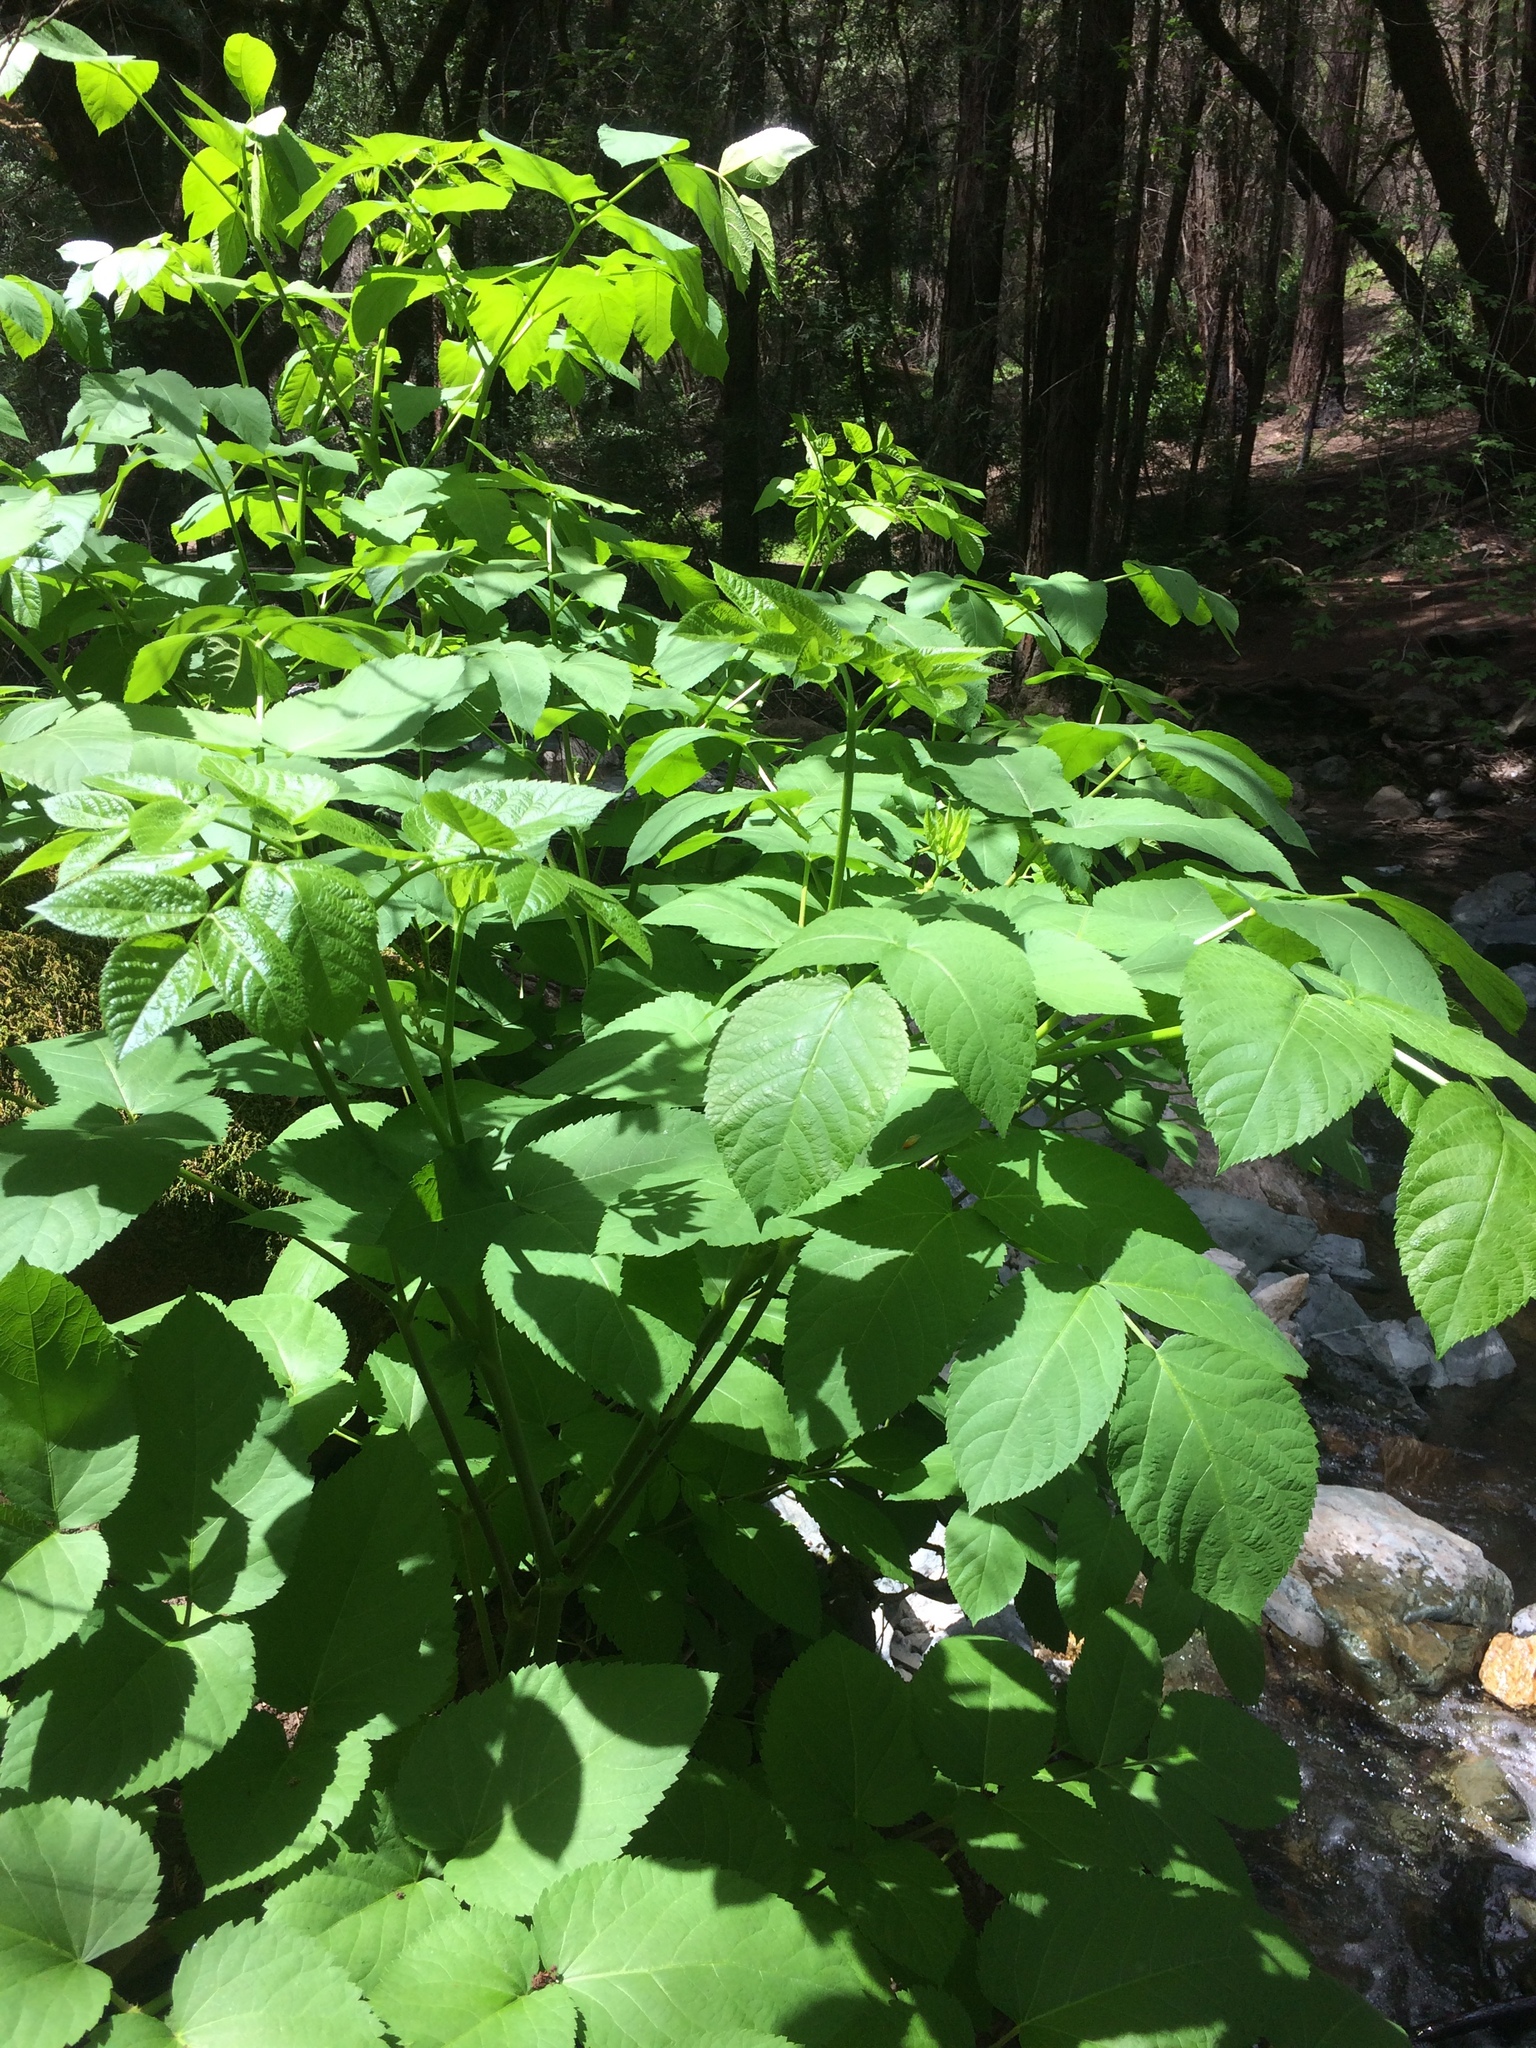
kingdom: Plantae
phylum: Tracheophyta
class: Magnoliopsida
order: Apiales
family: Araliaceae
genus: Aralia
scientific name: Aralia californica
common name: California-ginseng
